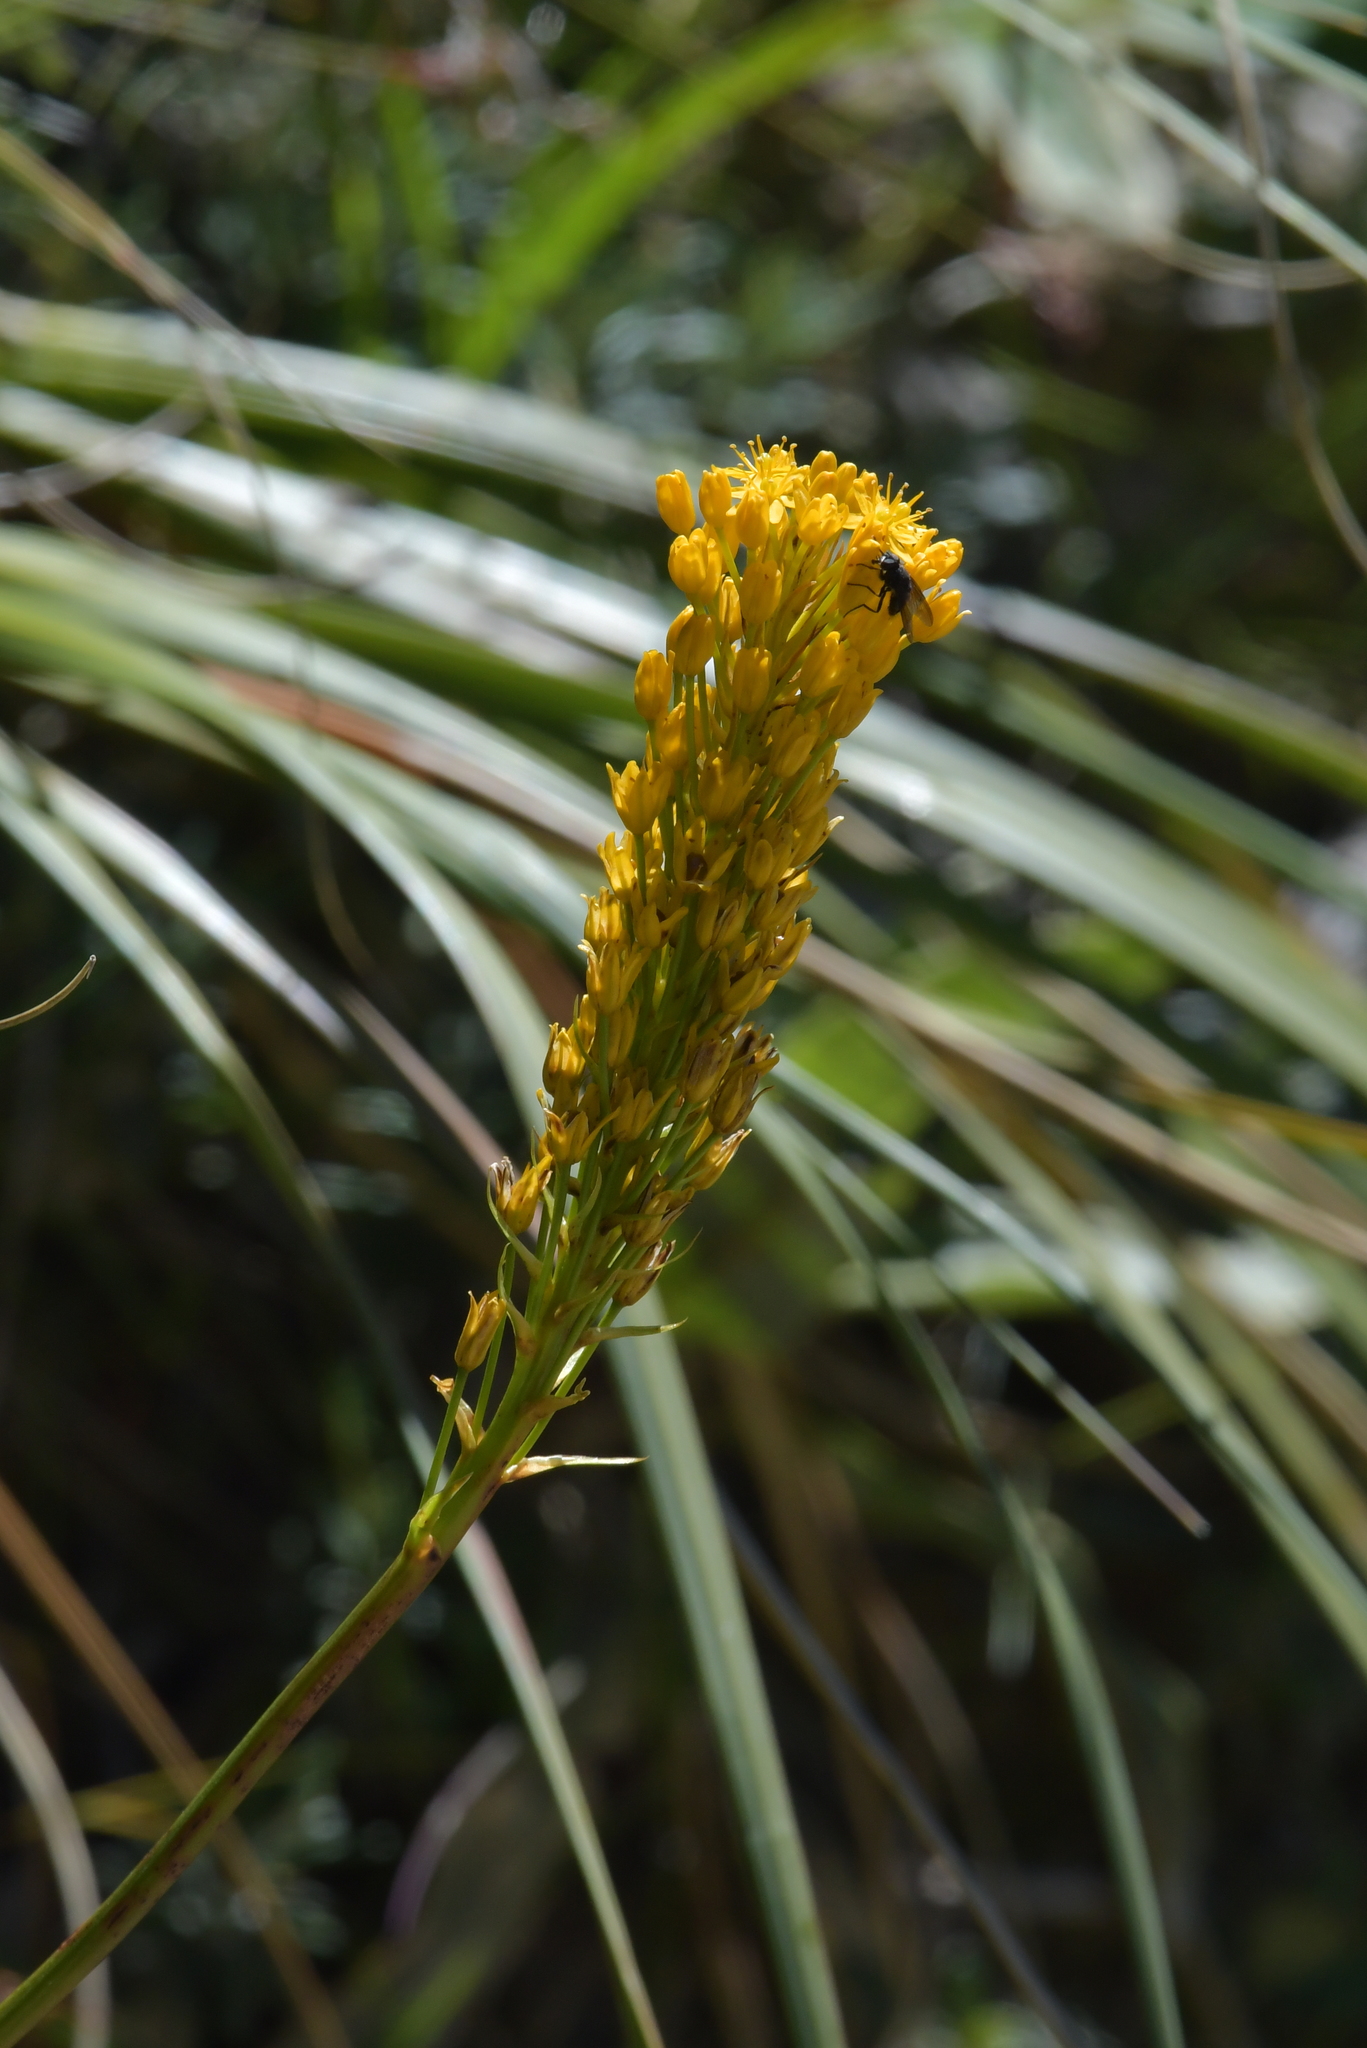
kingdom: Plantae
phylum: Tracheophyta
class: Liliopsida
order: Asparagales
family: Asphodelaceae
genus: Bulbinella
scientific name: Bulbinella gibbsii
